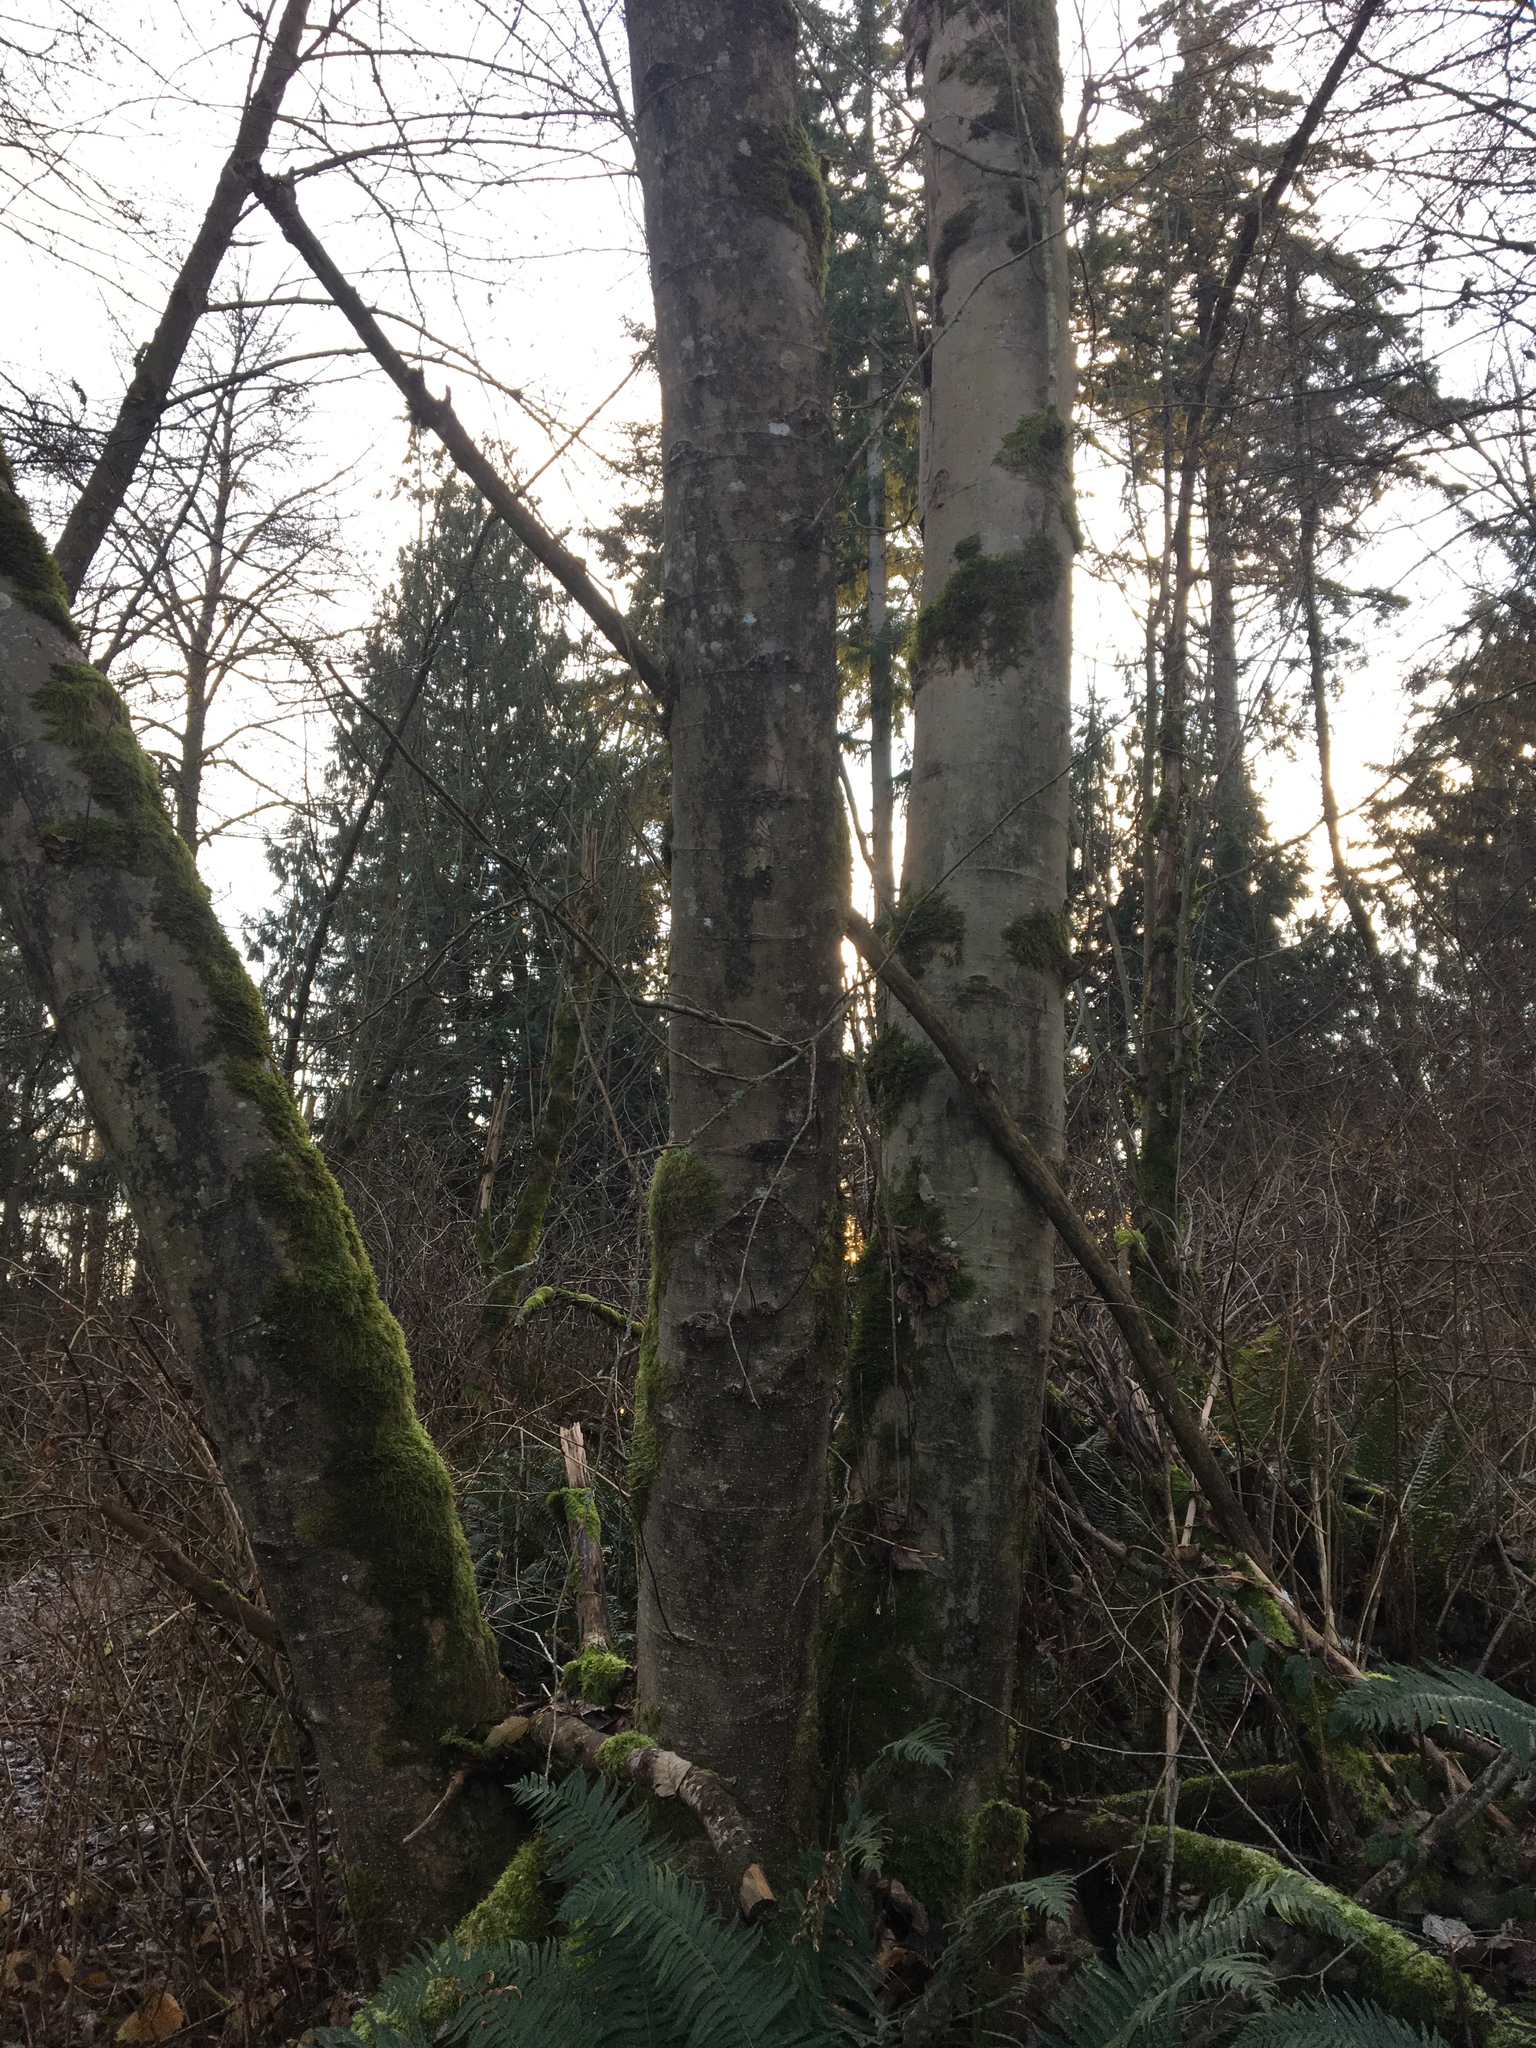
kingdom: Plantae
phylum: Tracheophyta
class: Magnoliopsida
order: Fagales
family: Betulaceae
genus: Alnus
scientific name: Alnus rubra
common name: Red alder
